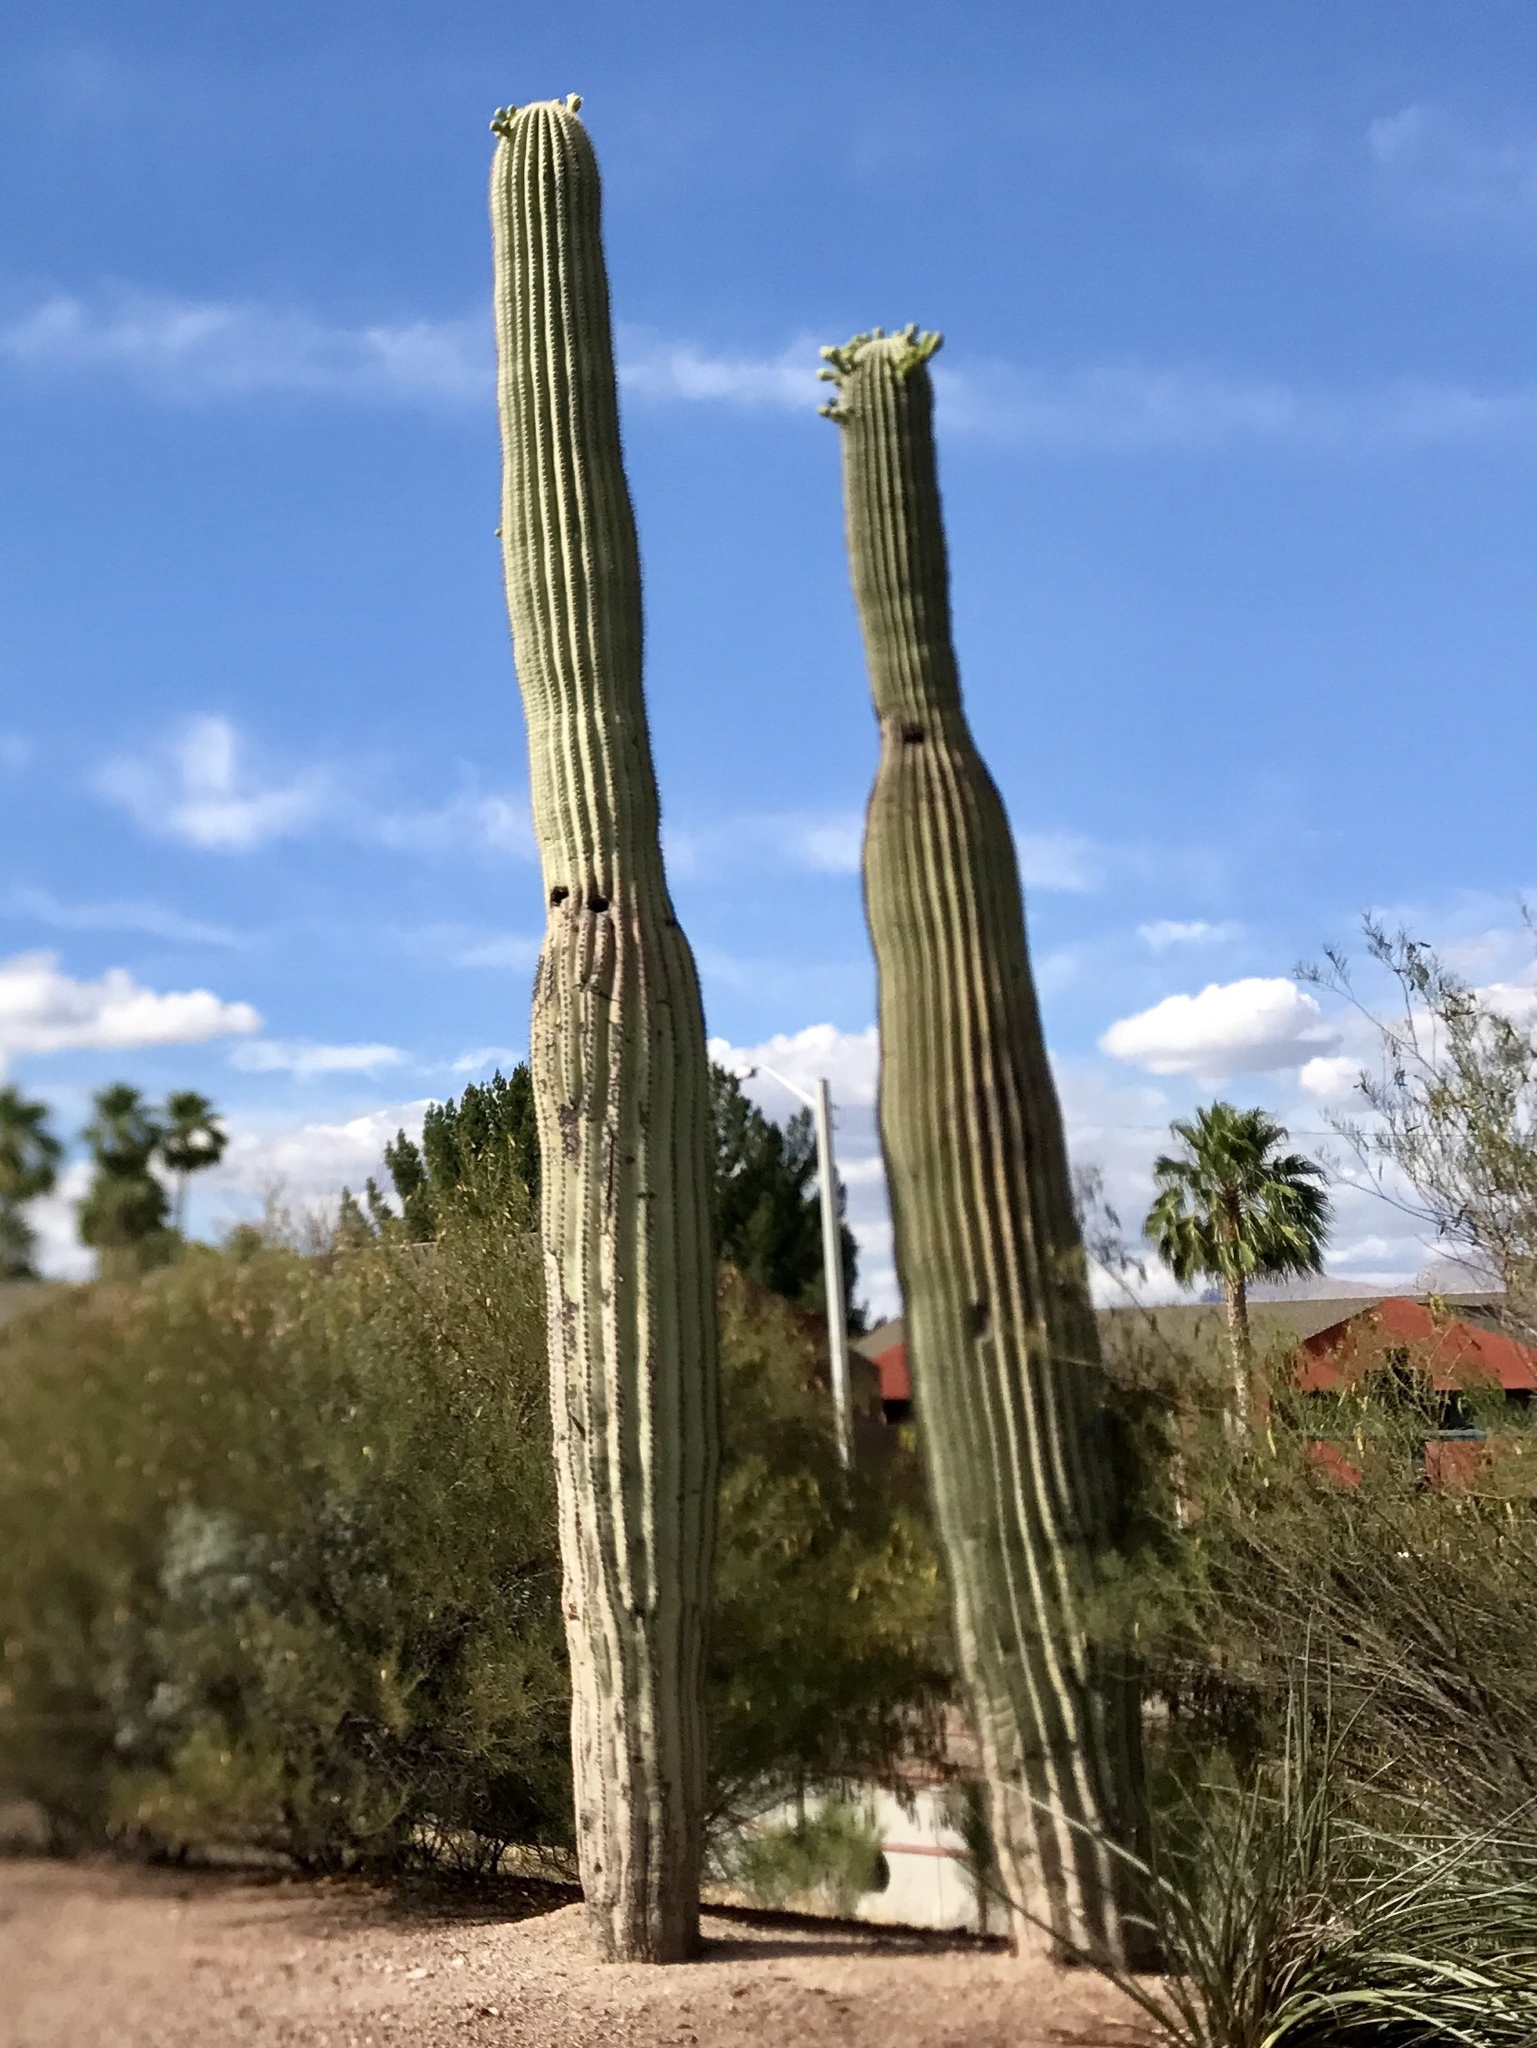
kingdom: Plantae
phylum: Tracheophyta
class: Magnoliopsida
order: Caryophyllales
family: Cactaceae
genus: Carnegiea
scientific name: Carnegiea gigantea
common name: Saguaro
